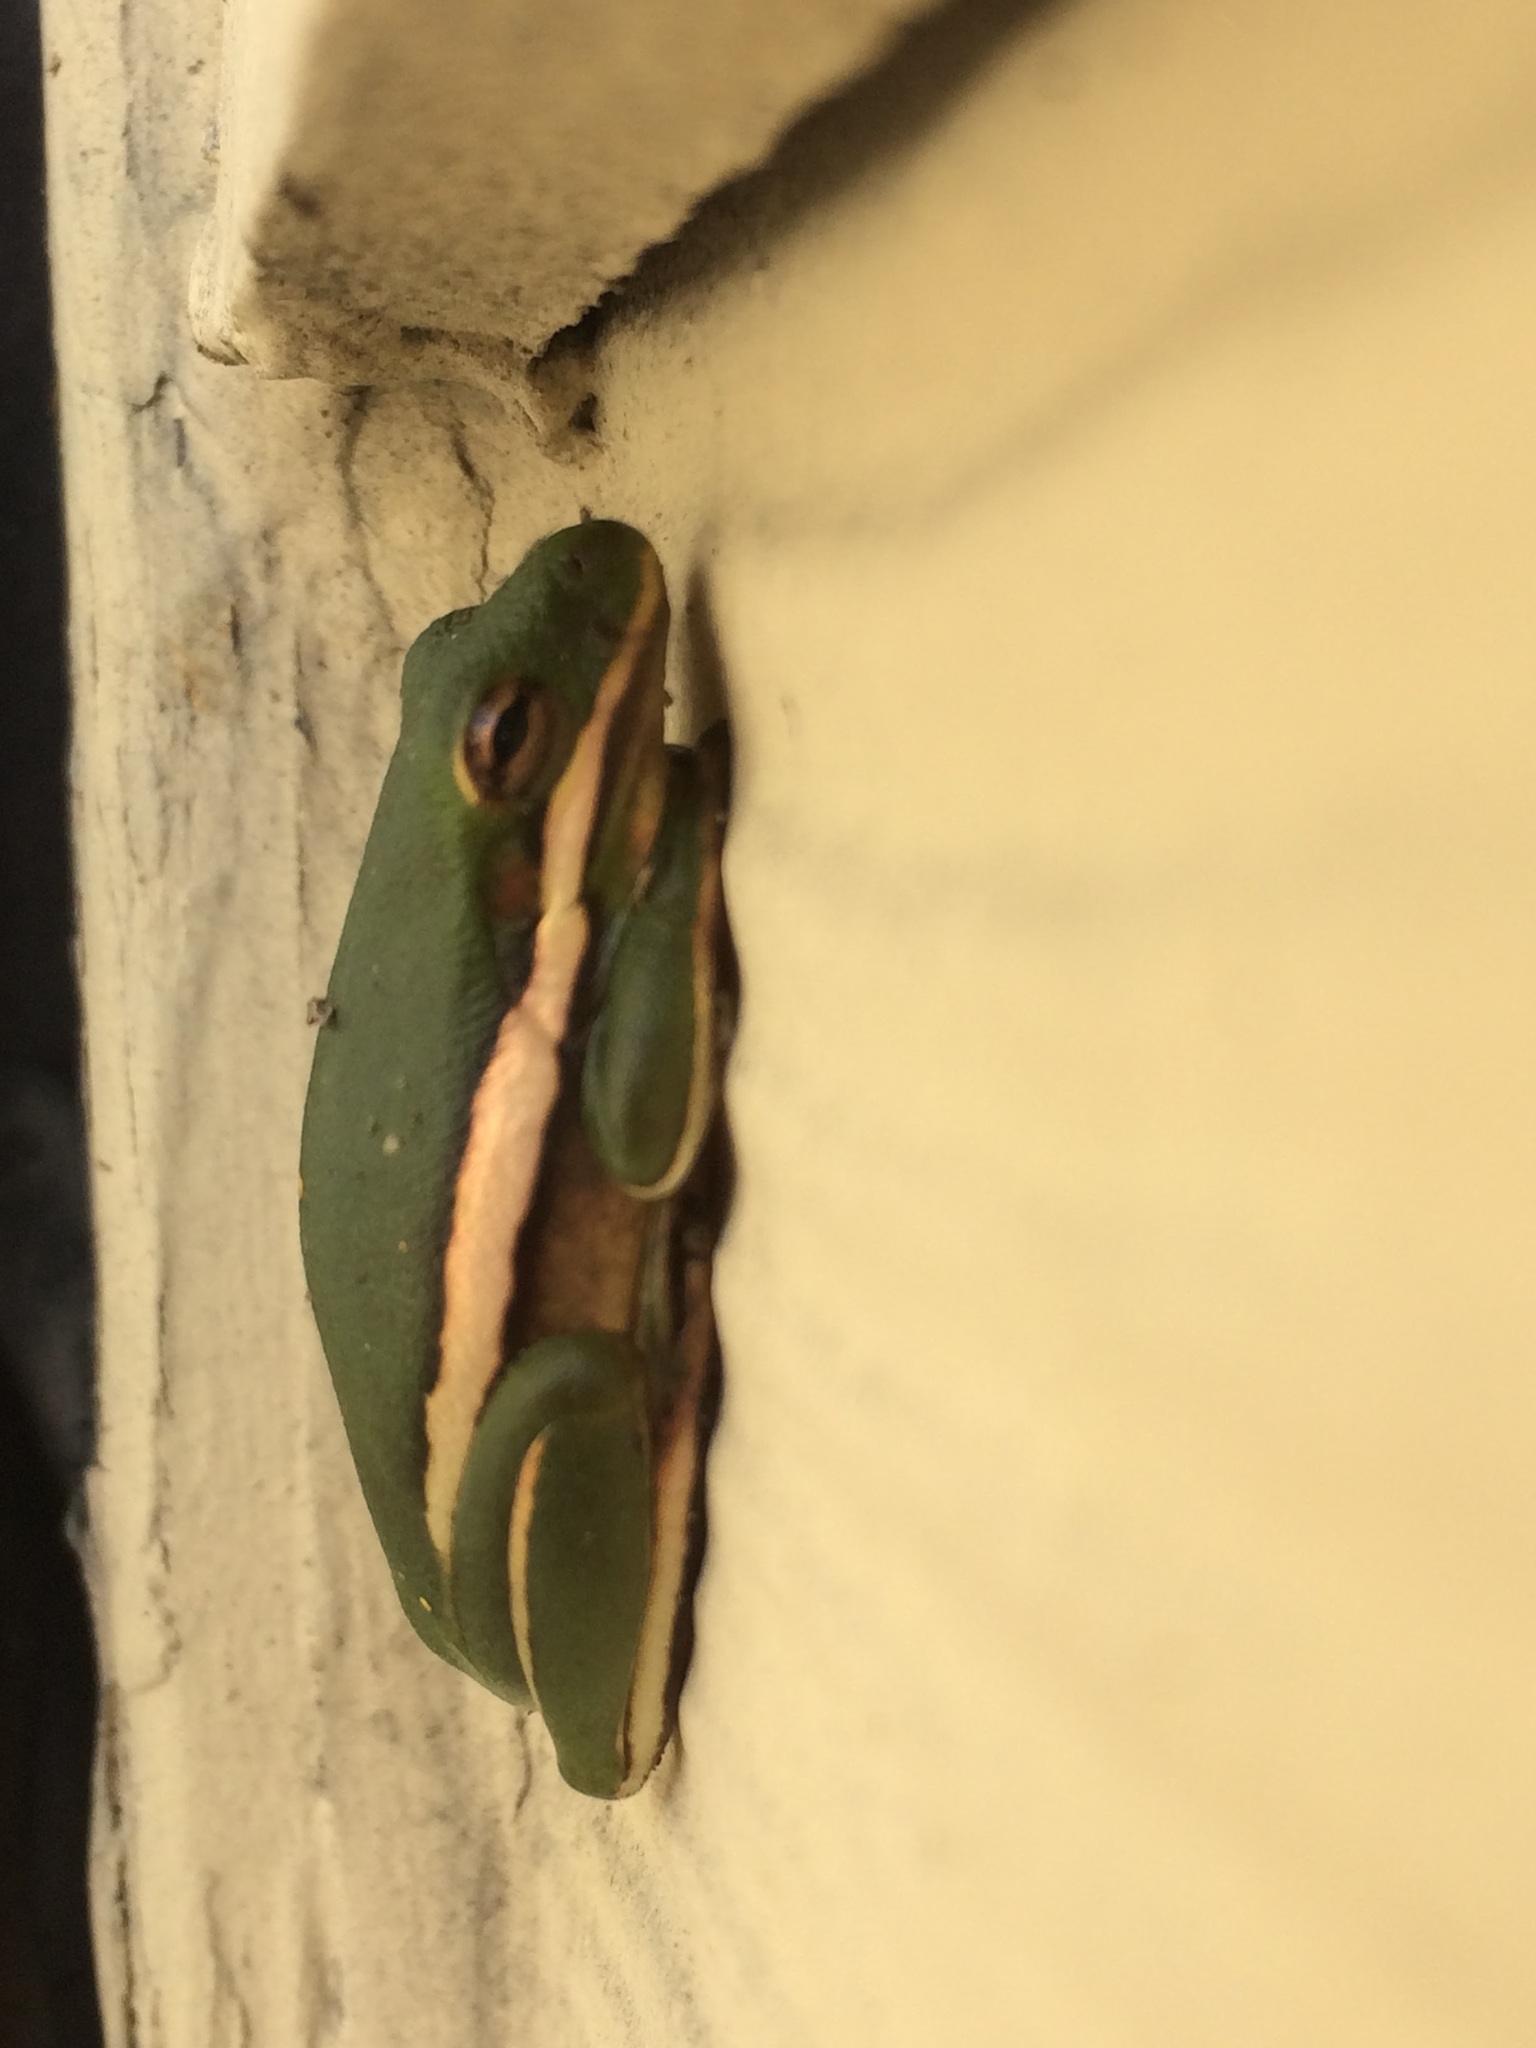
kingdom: Animalia
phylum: Chordata
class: Amphibia
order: Anura
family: Hylidae
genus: Dryophytes
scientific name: Dryophytes cinereus
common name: Green treefrog
